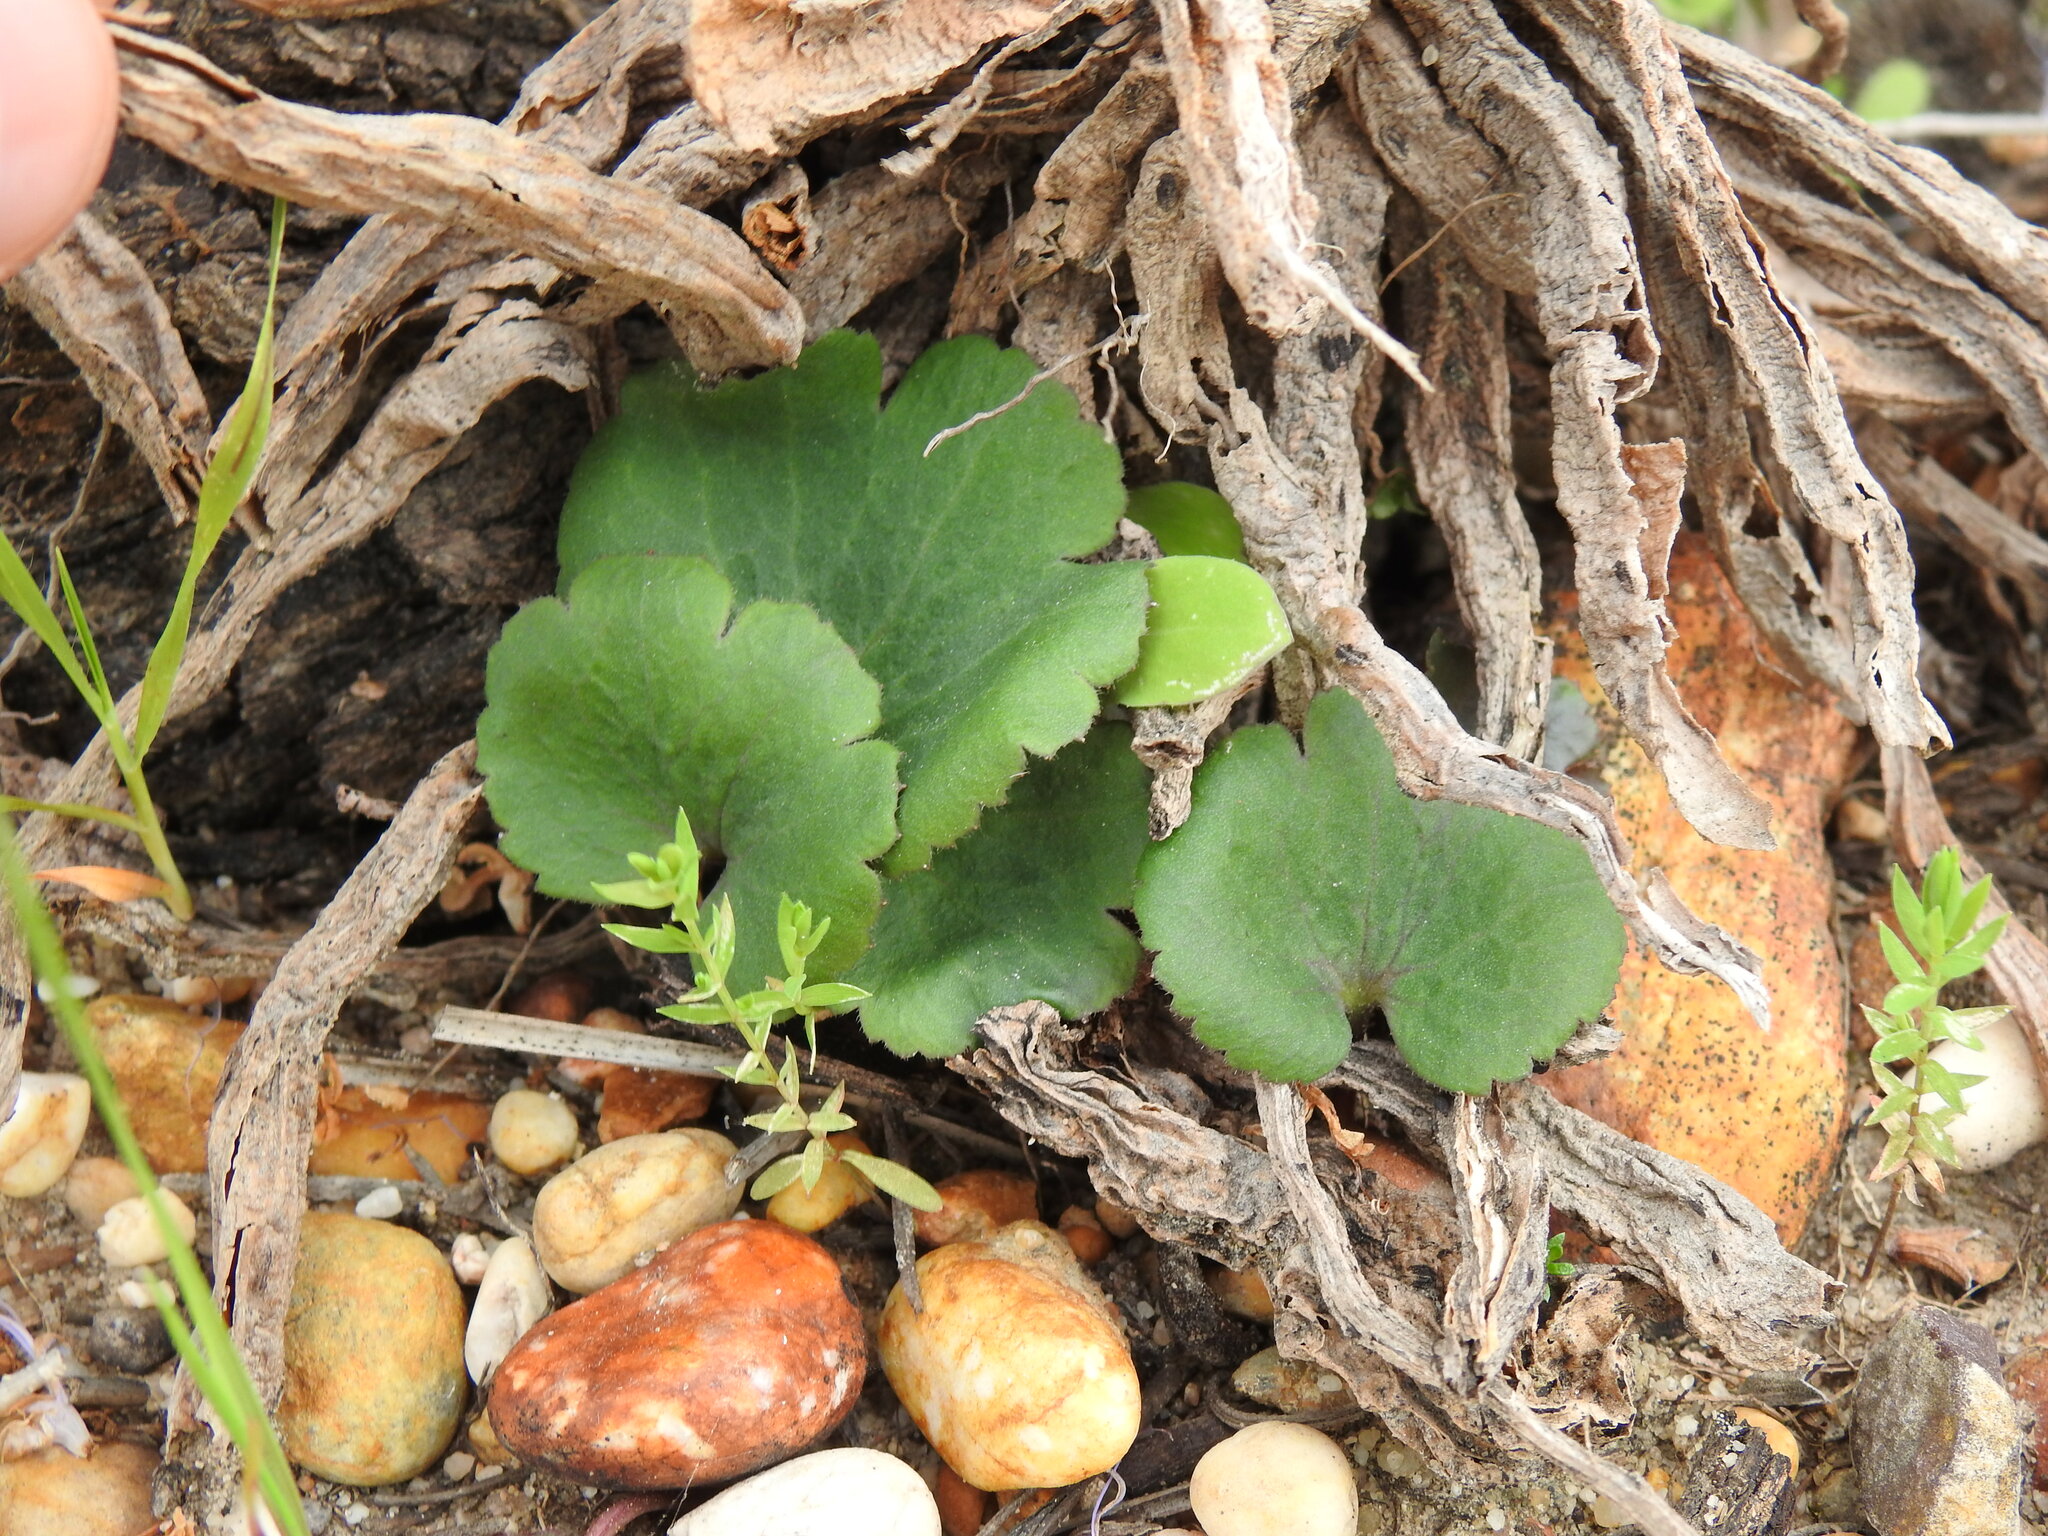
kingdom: Plantae
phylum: Tracheophyta
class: Magnoliopsida
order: Ranunculales
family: Ranunculaceae
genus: Anemone
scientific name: Anemone palmata
